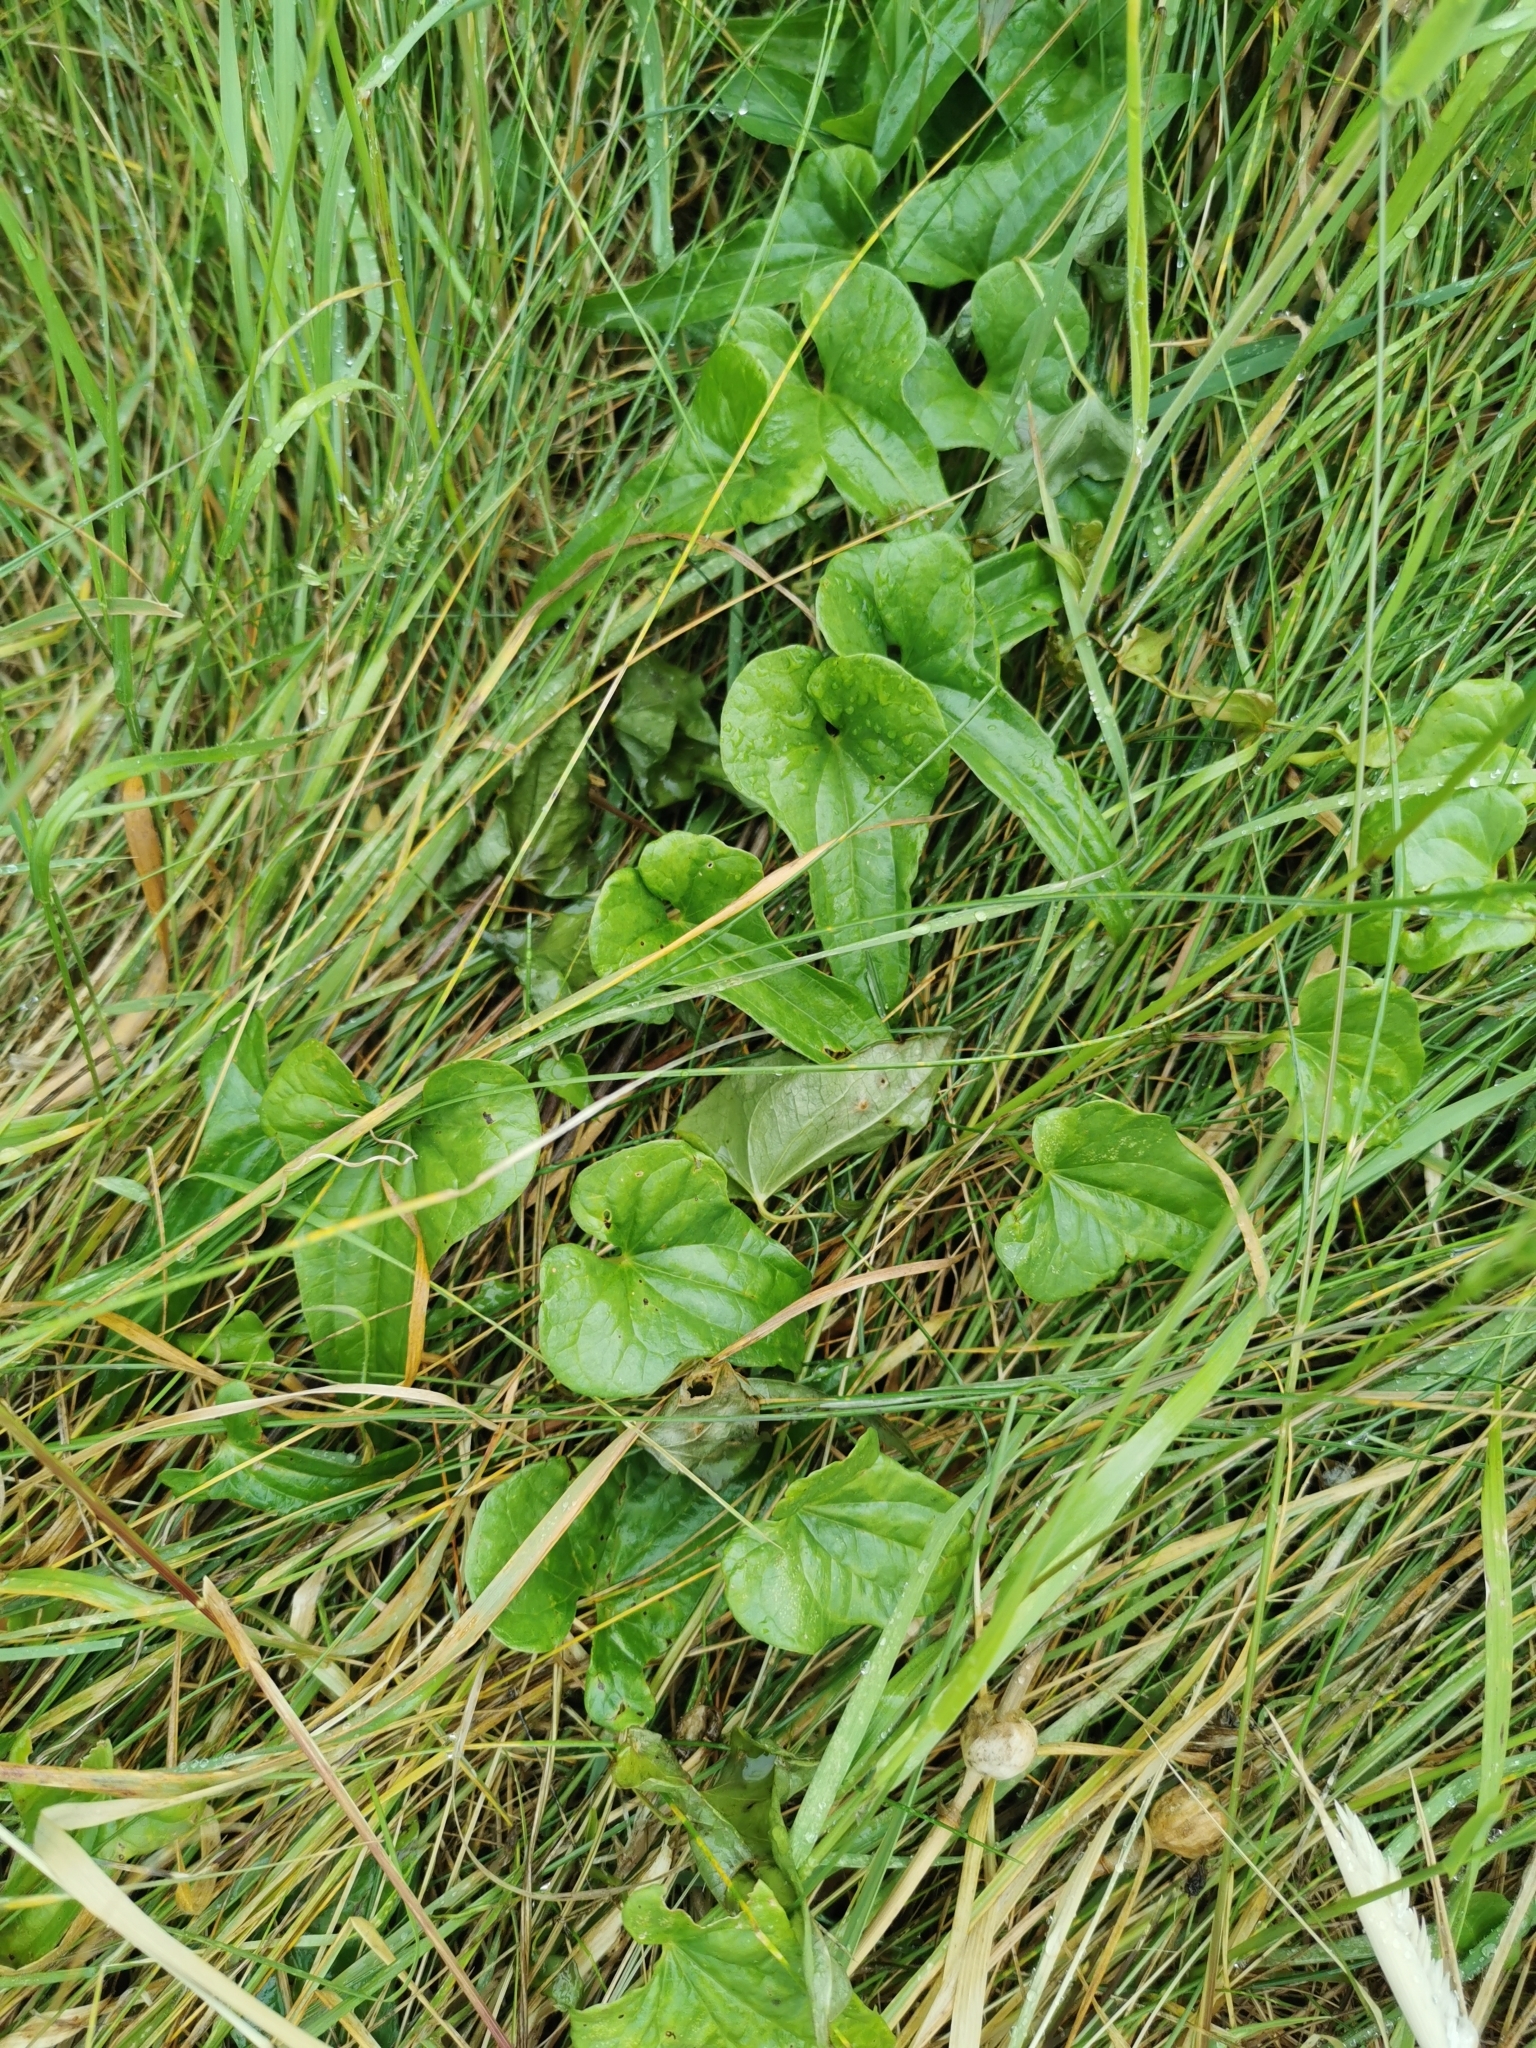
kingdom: Plantae
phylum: Tracheophyta
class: Liliopsida
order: Dioscoreales
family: Dioscoreaceae
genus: Dioscorea
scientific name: Dioscorea communis
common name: Black-bindweed
